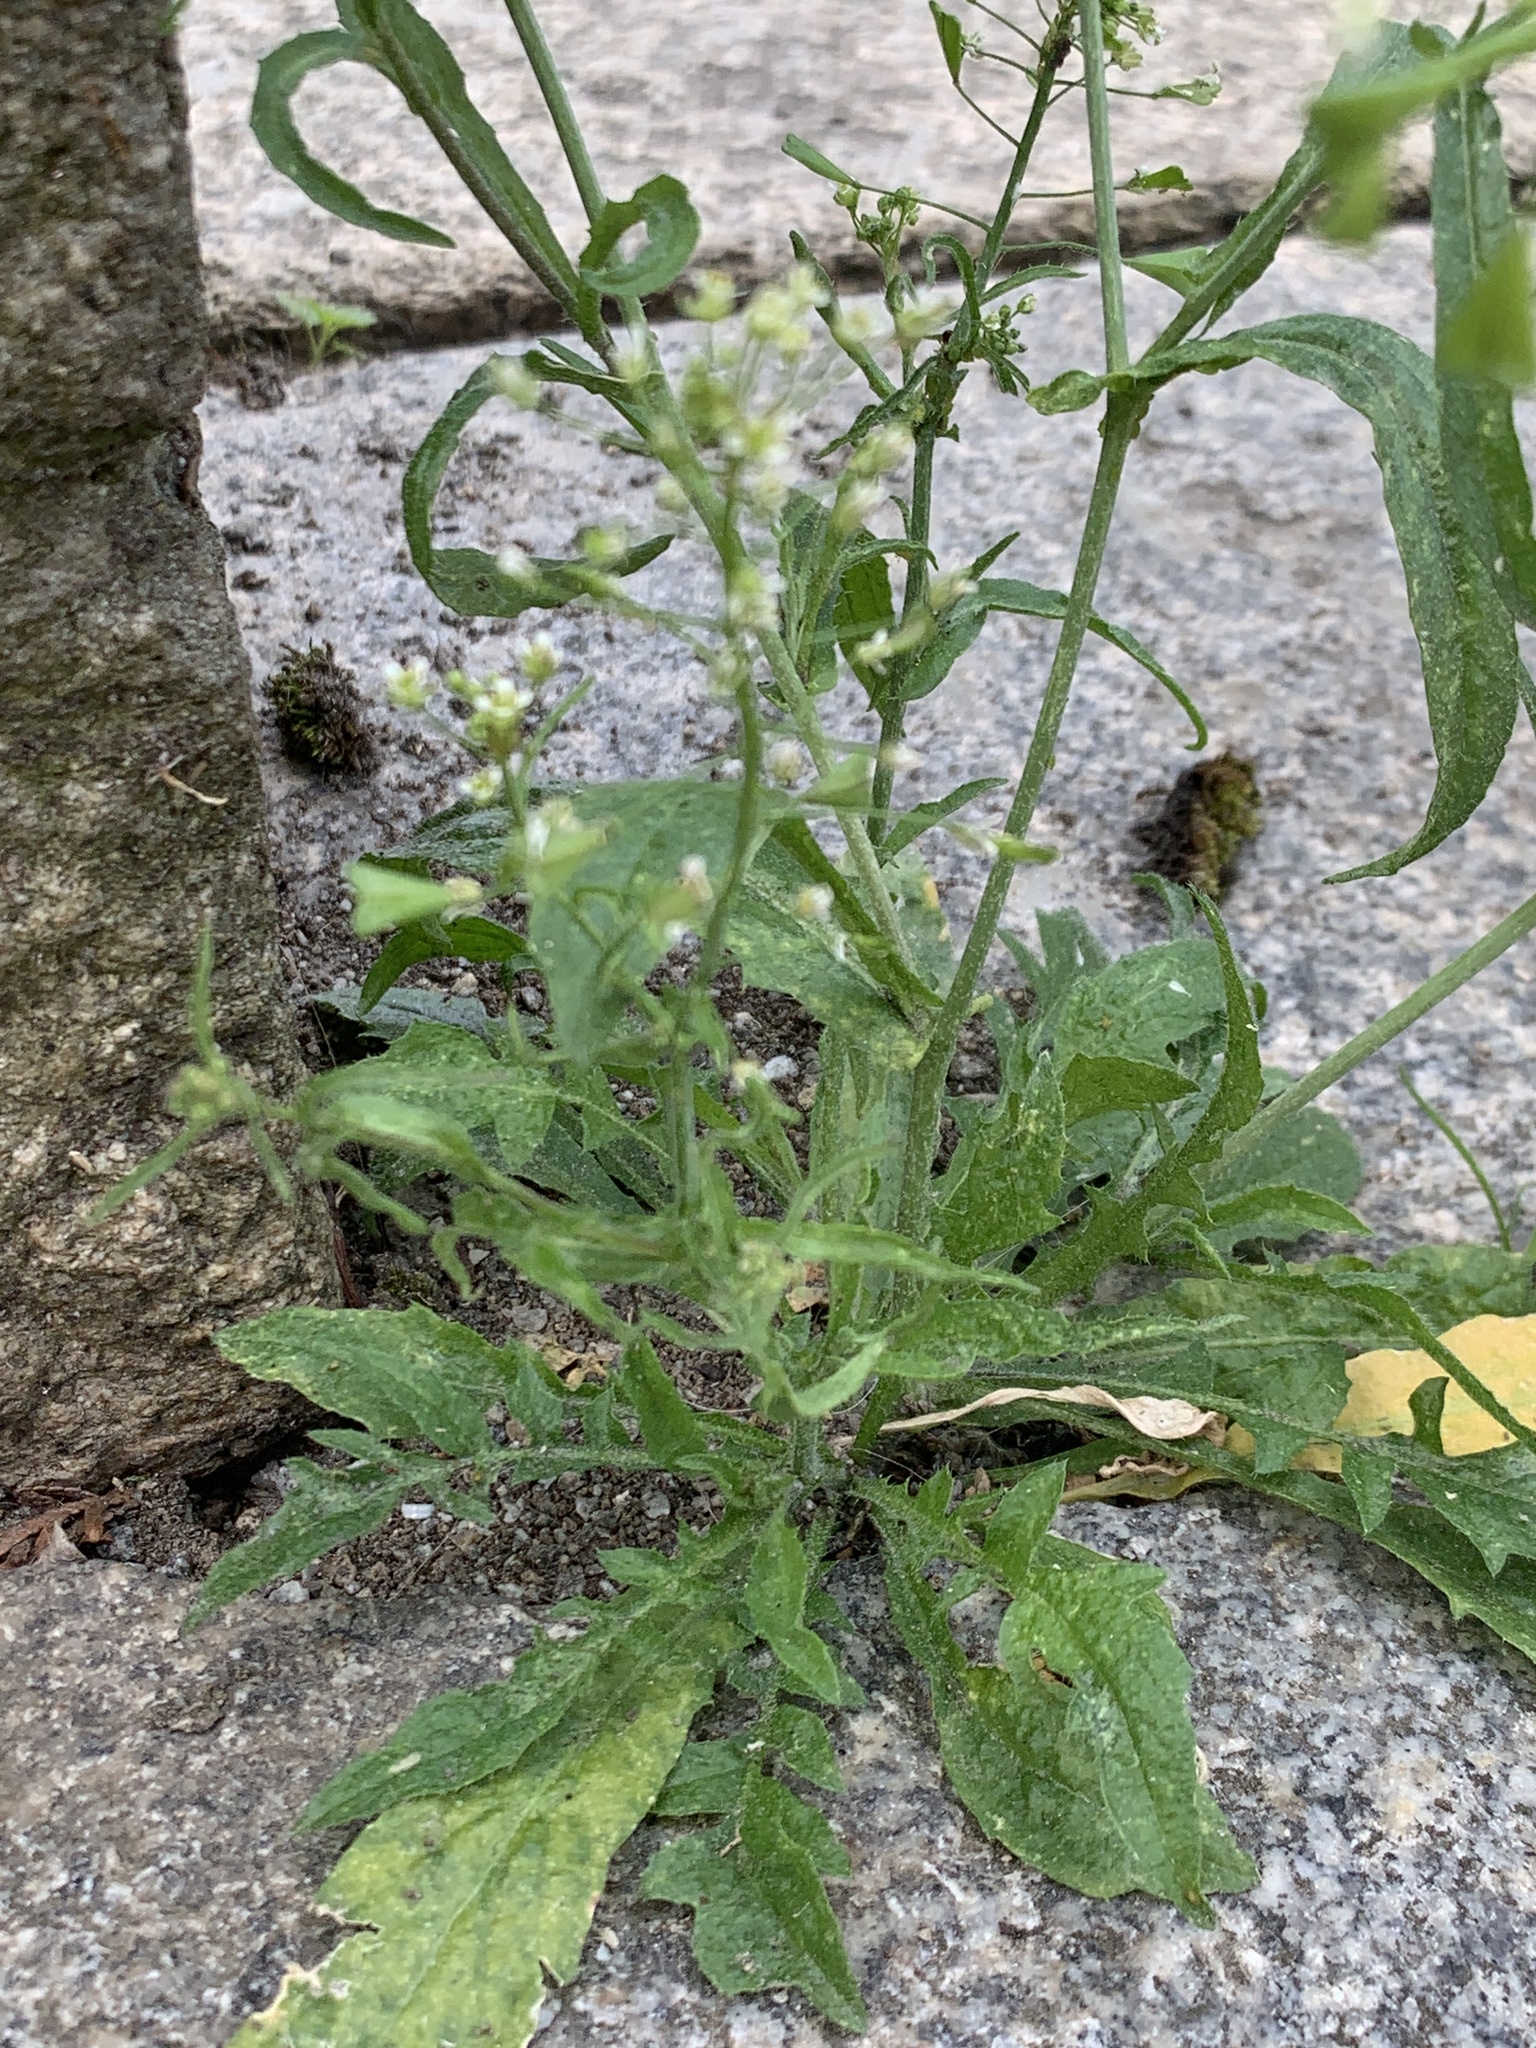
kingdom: Plantae
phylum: Tracheophyta
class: Magnoliopsida
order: Brassicales
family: Brassicaceae
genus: Capsella
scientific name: Capsella bursa-pastoris
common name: Shepherd's purse
